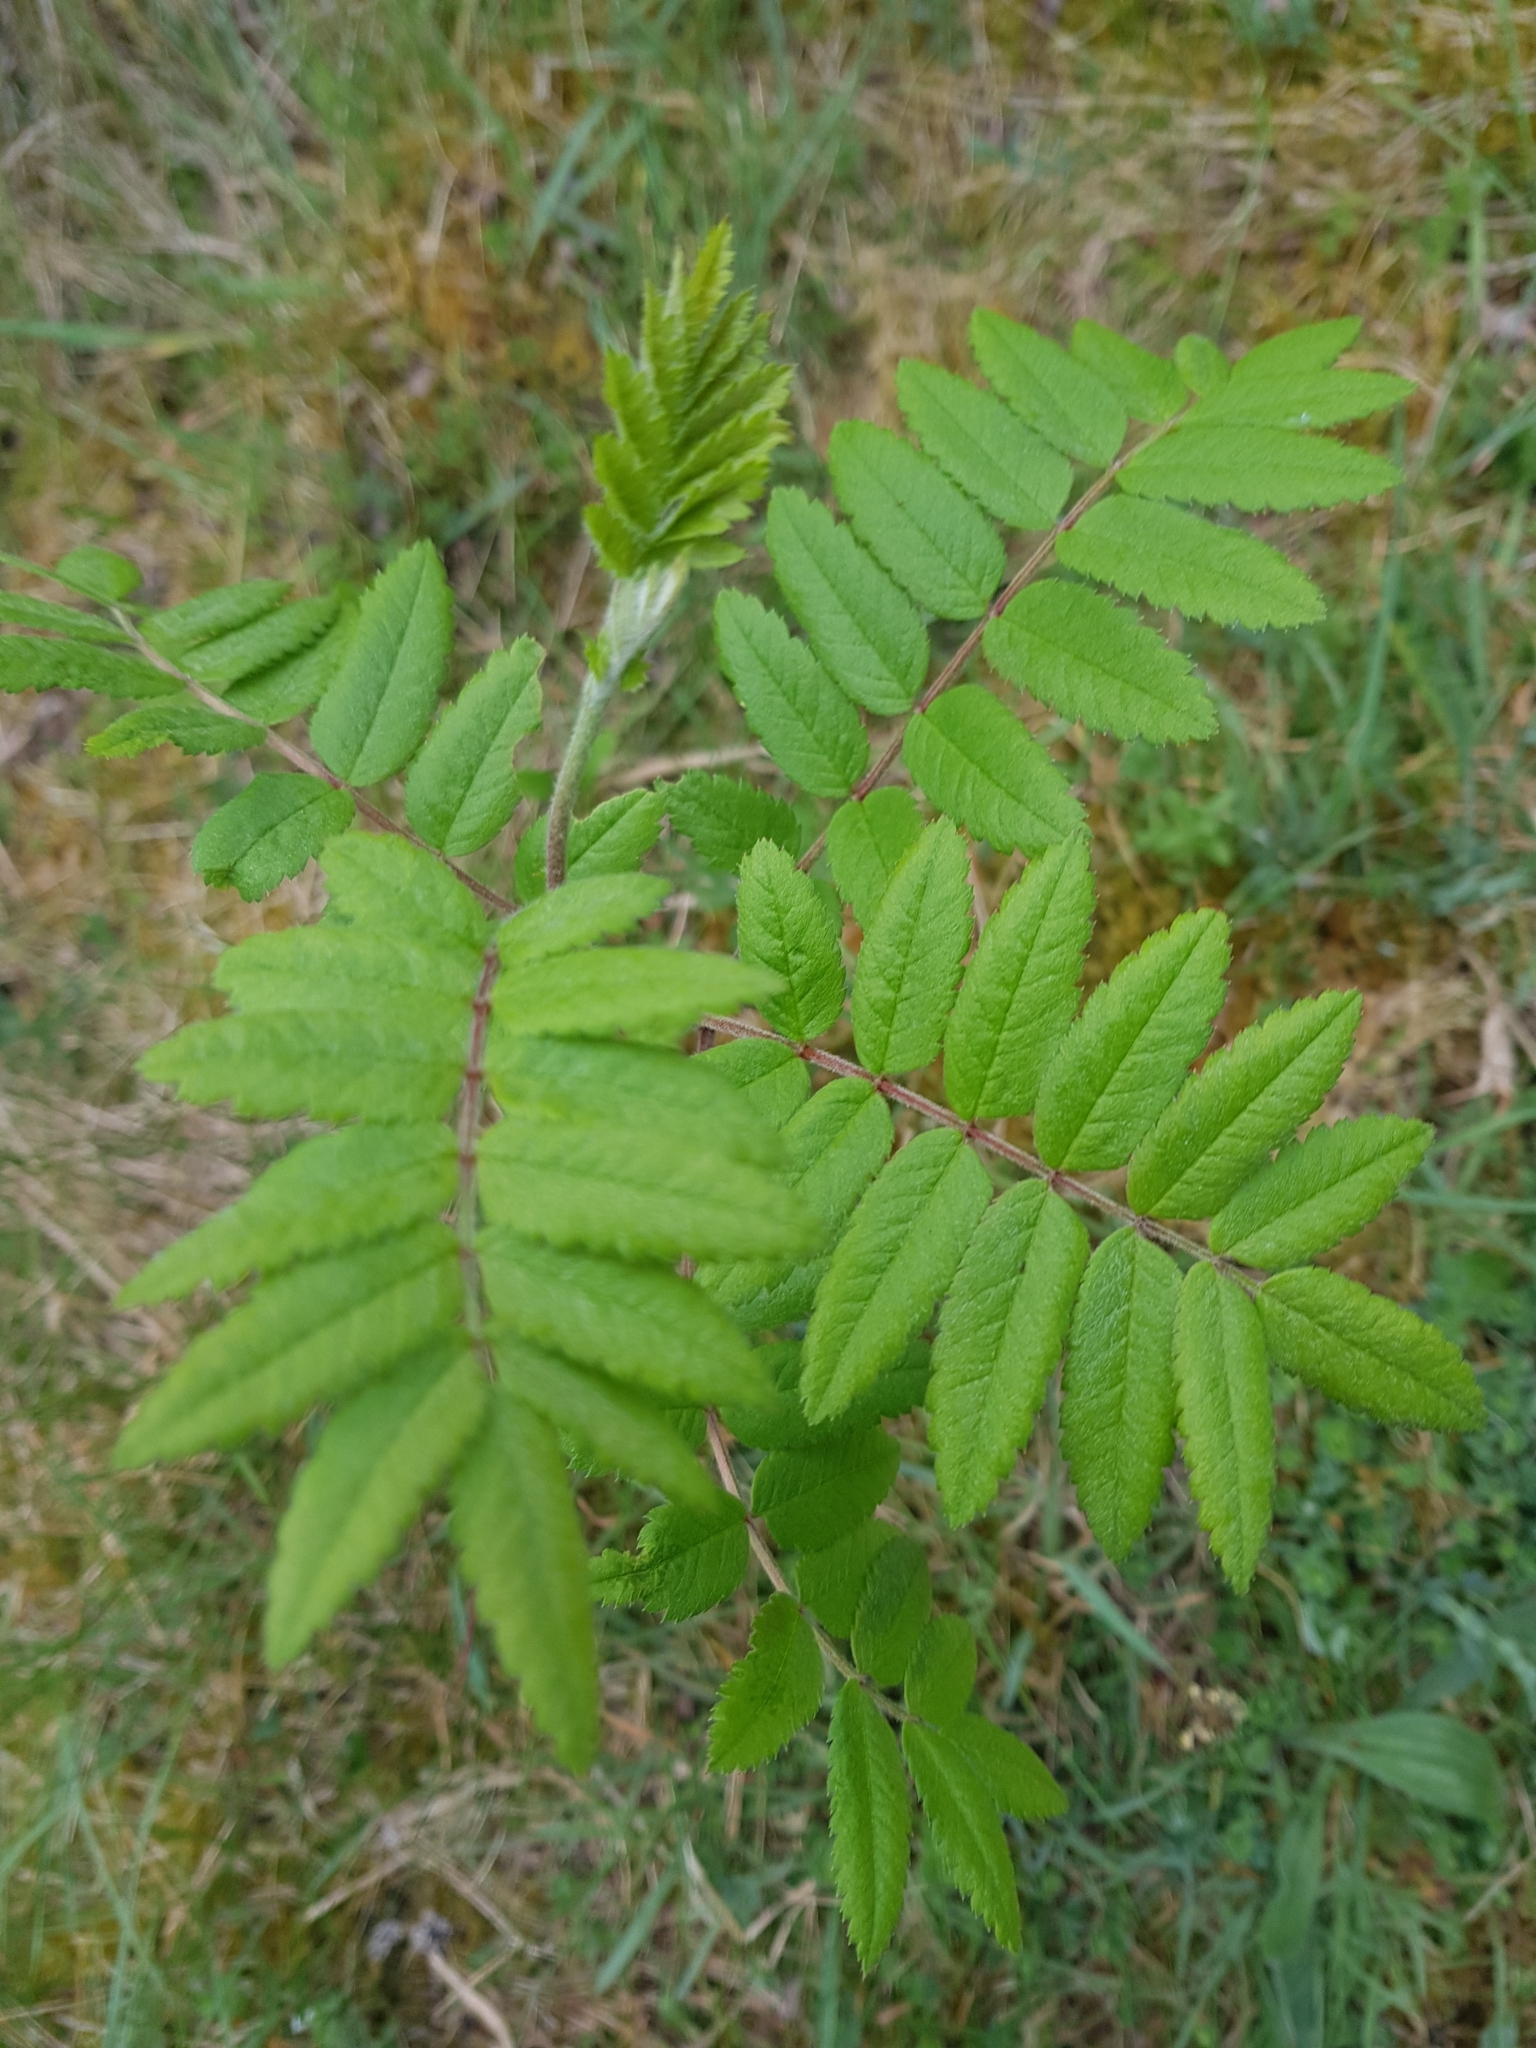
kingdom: Plantae
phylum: Tracheophyta
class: Magnoliopsida
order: Rosales
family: Rosaceae
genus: Sorbus
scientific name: Sorbus aucuparia
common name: Rowan
